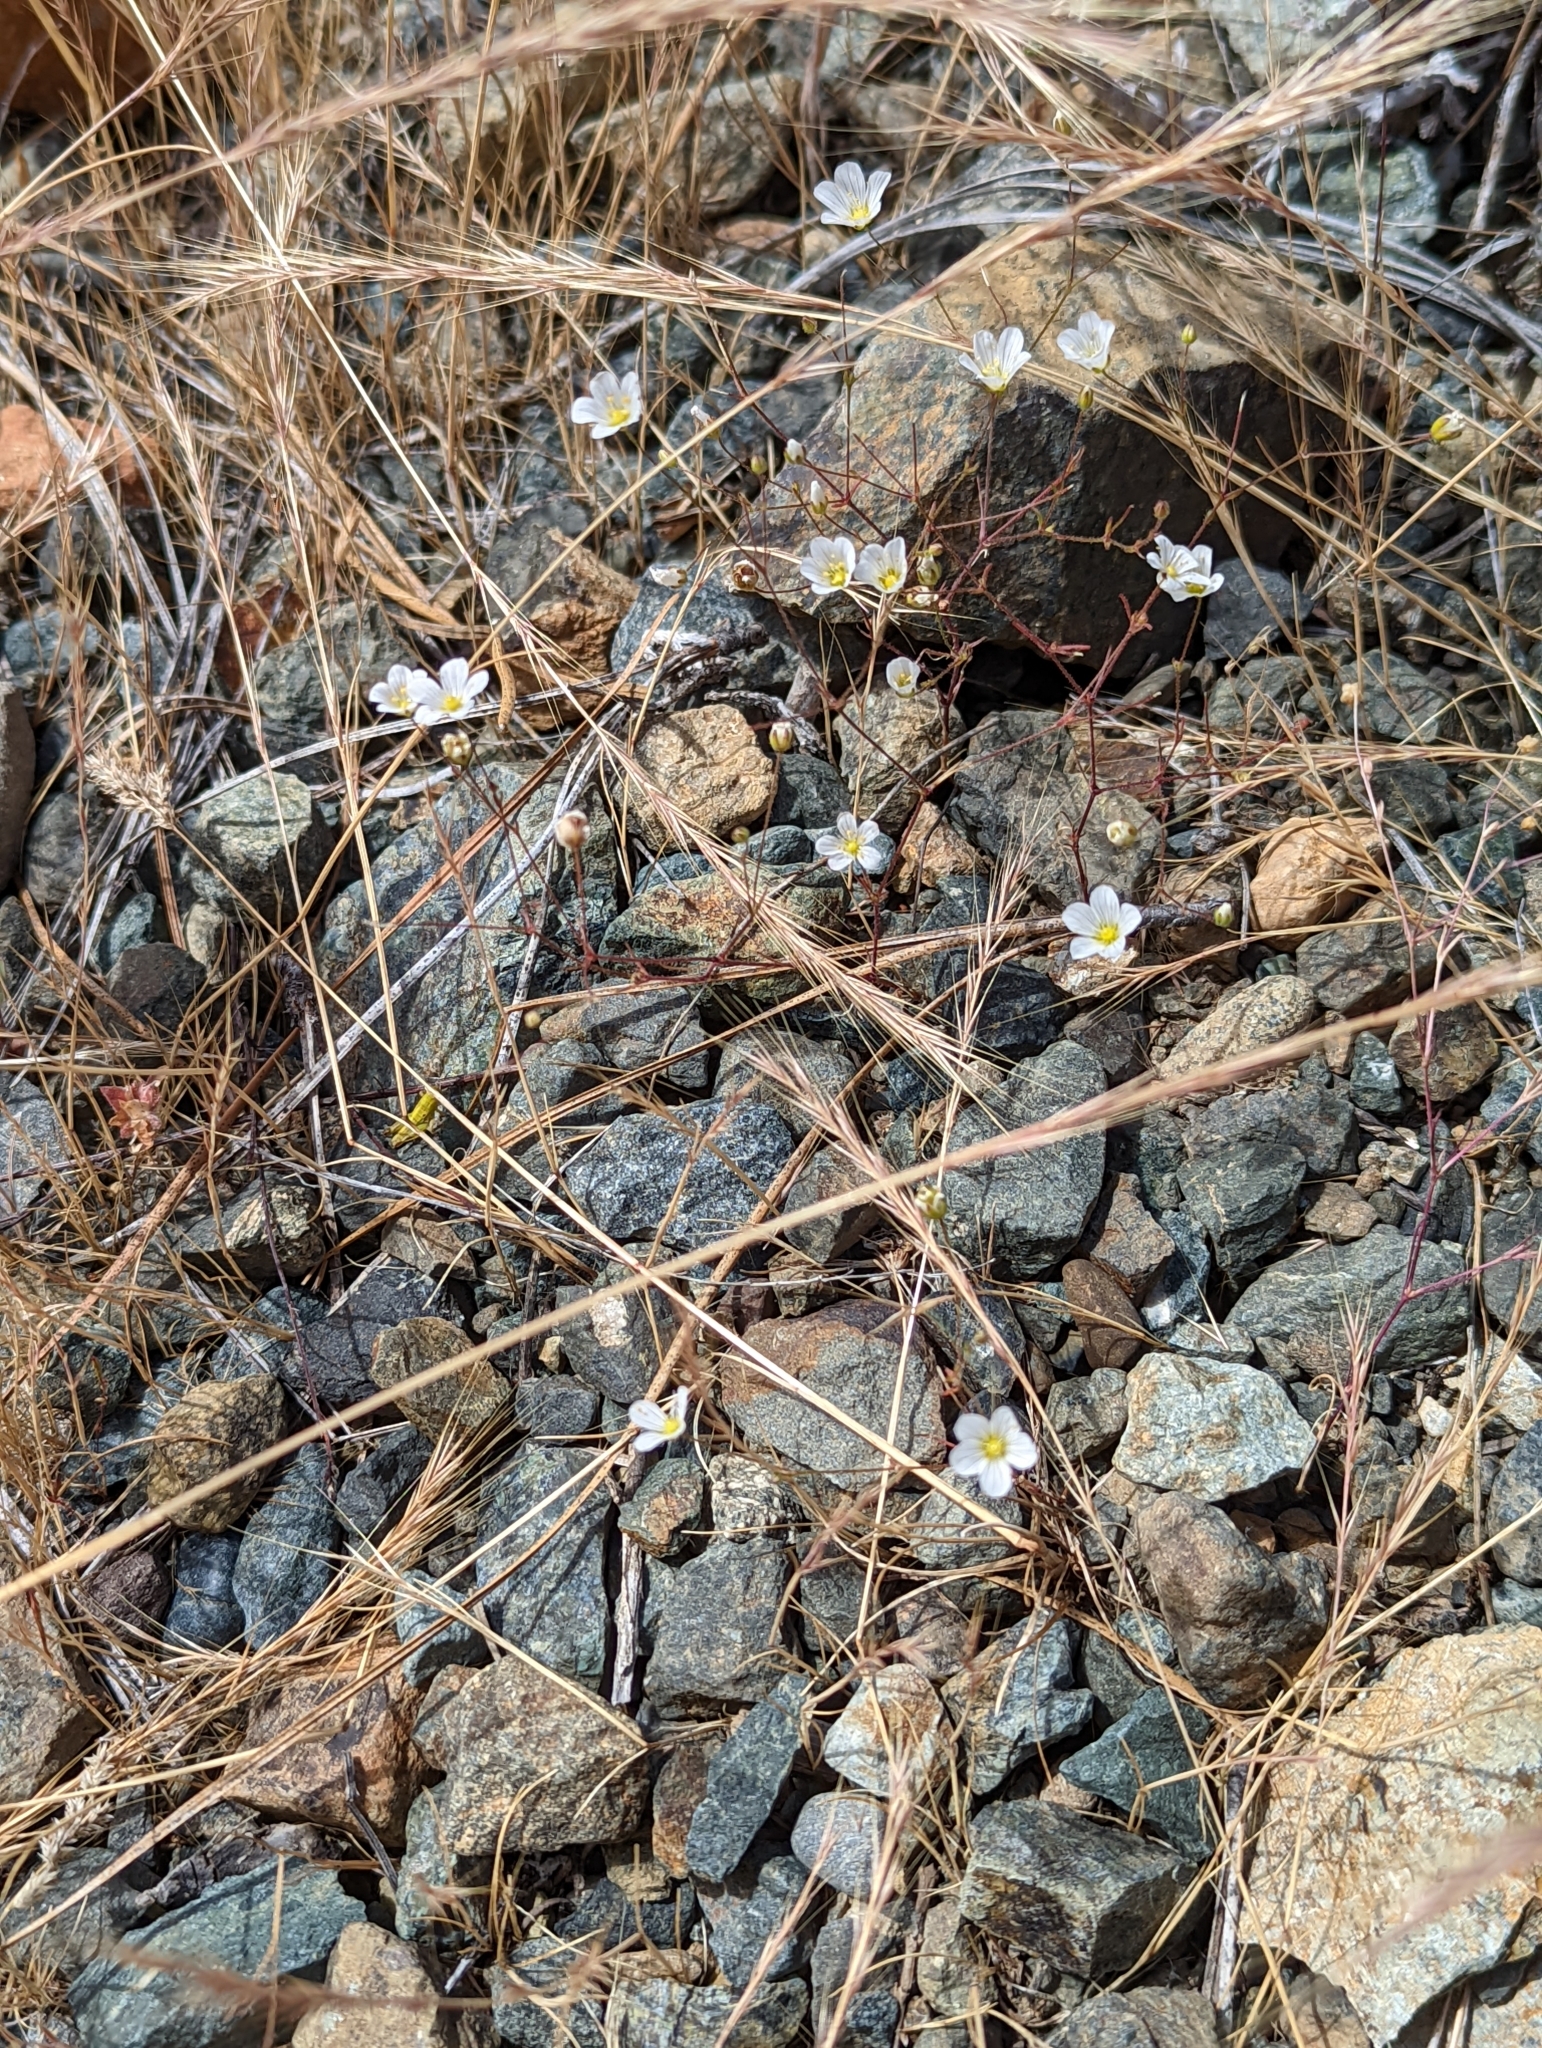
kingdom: Plantae
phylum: Tracheophyta
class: Magnoliopsida
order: Caryophyllales
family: Caryophyllaceae
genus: Sabulina
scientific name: Sabulina douglasii
